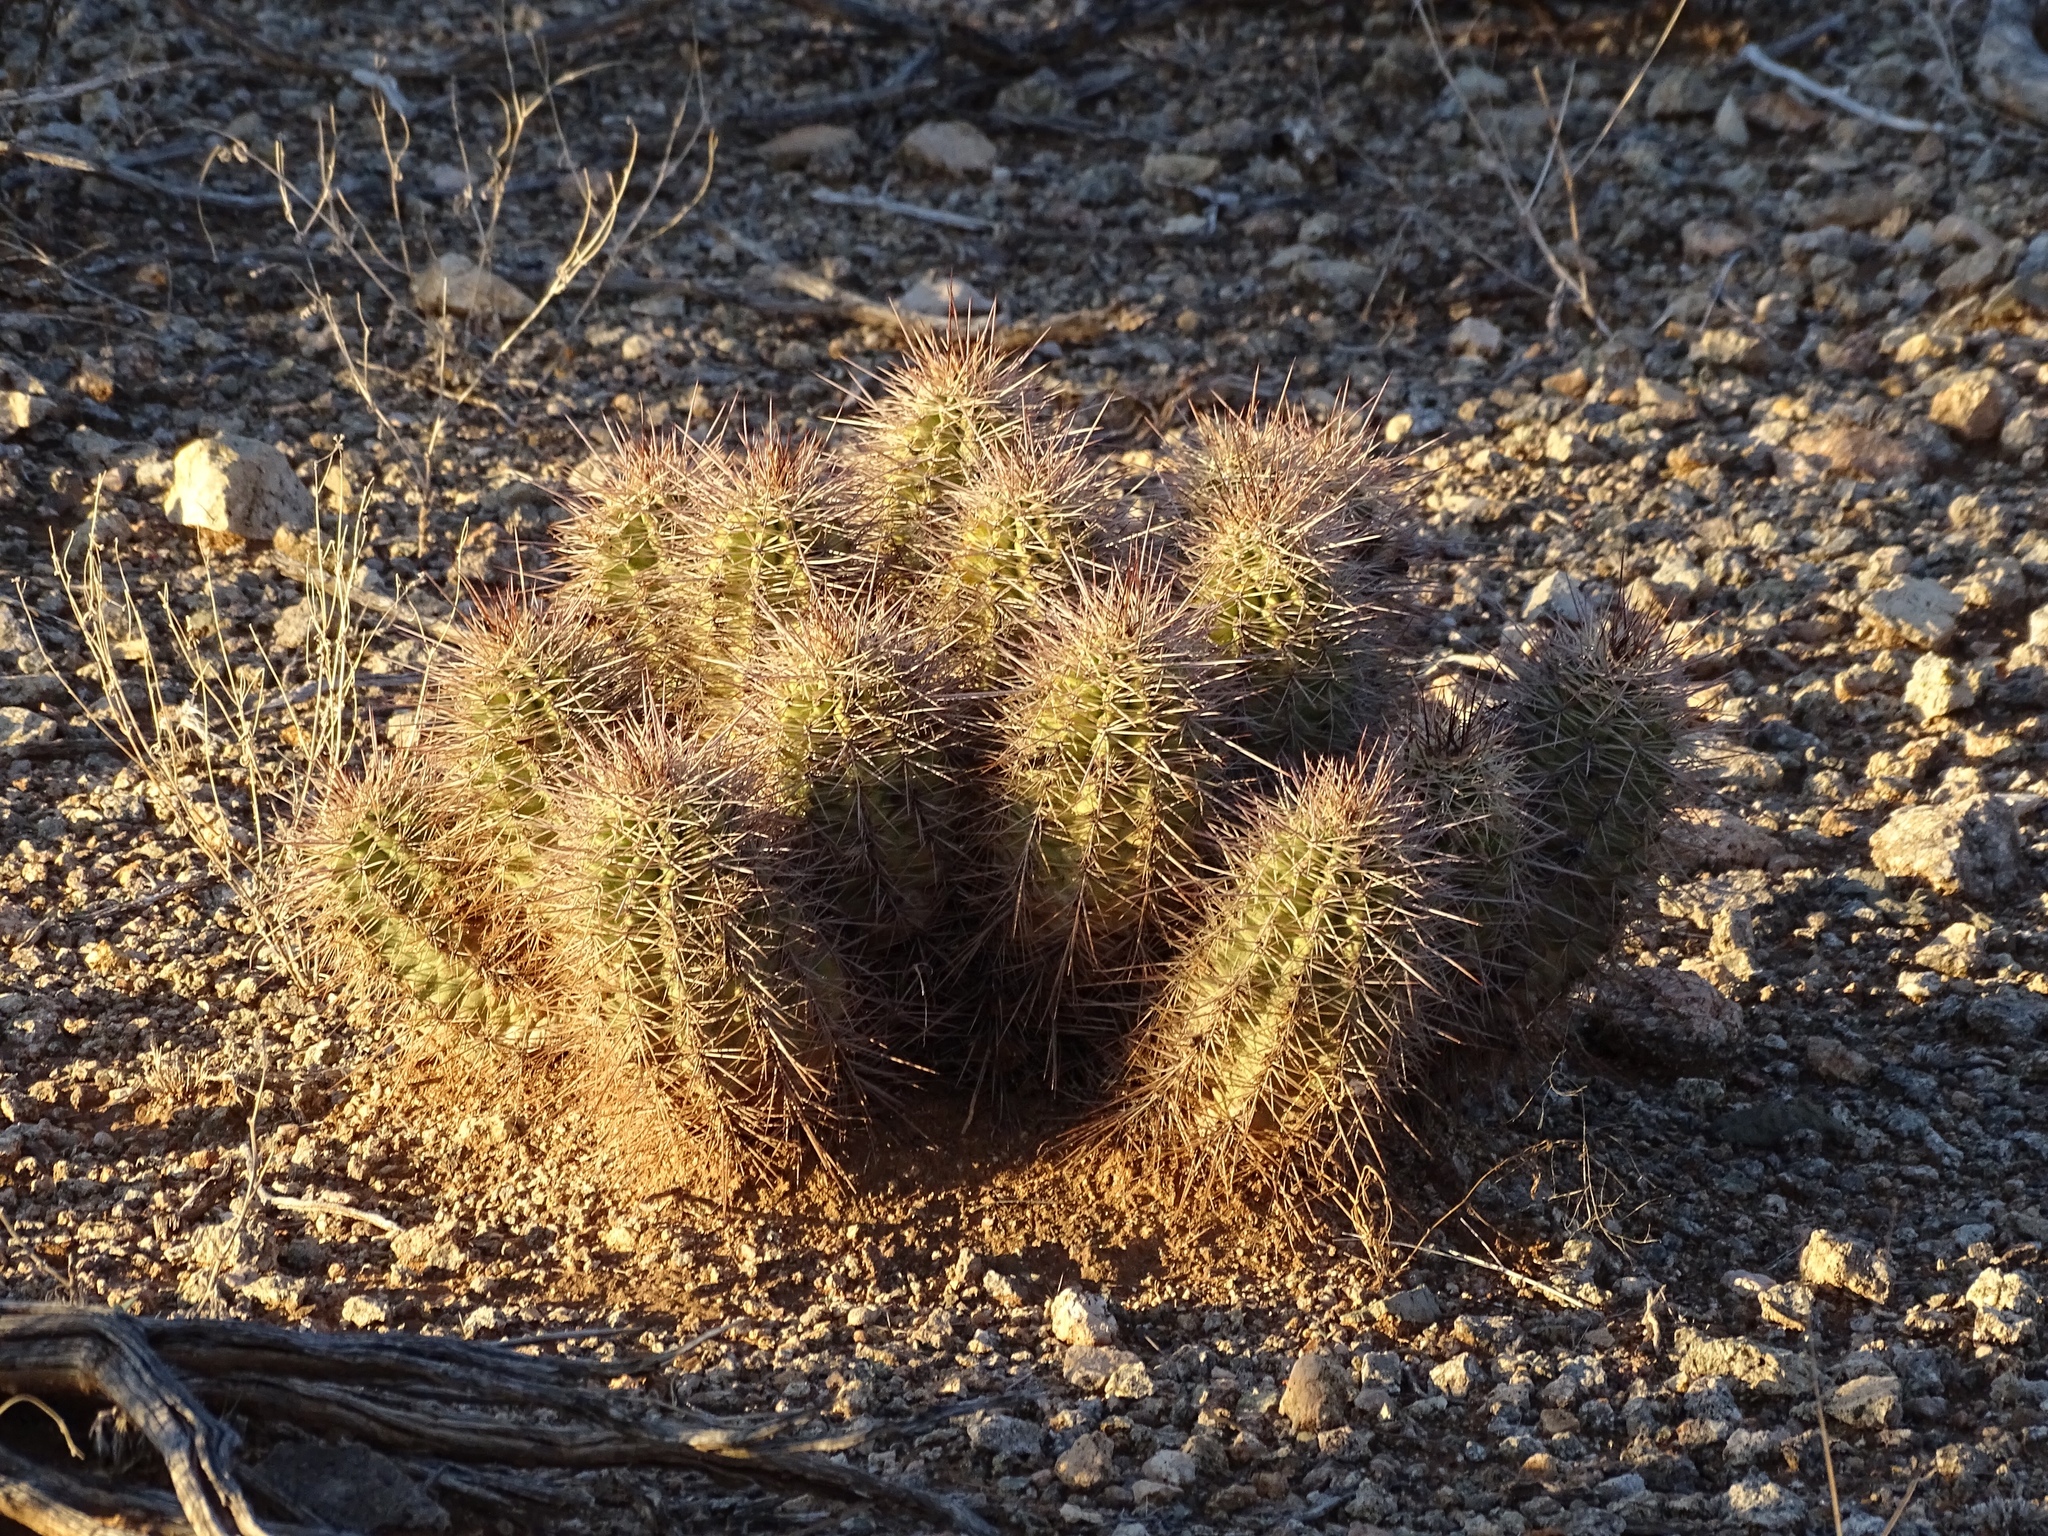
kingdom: Plantae
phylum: Tracheophyta
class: Magnoliopsida
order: Caryophyllales
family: Cactaceae
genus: Echinocereus
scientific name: Echinocereus coccineus
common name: Scarlet hedgehog cactus
